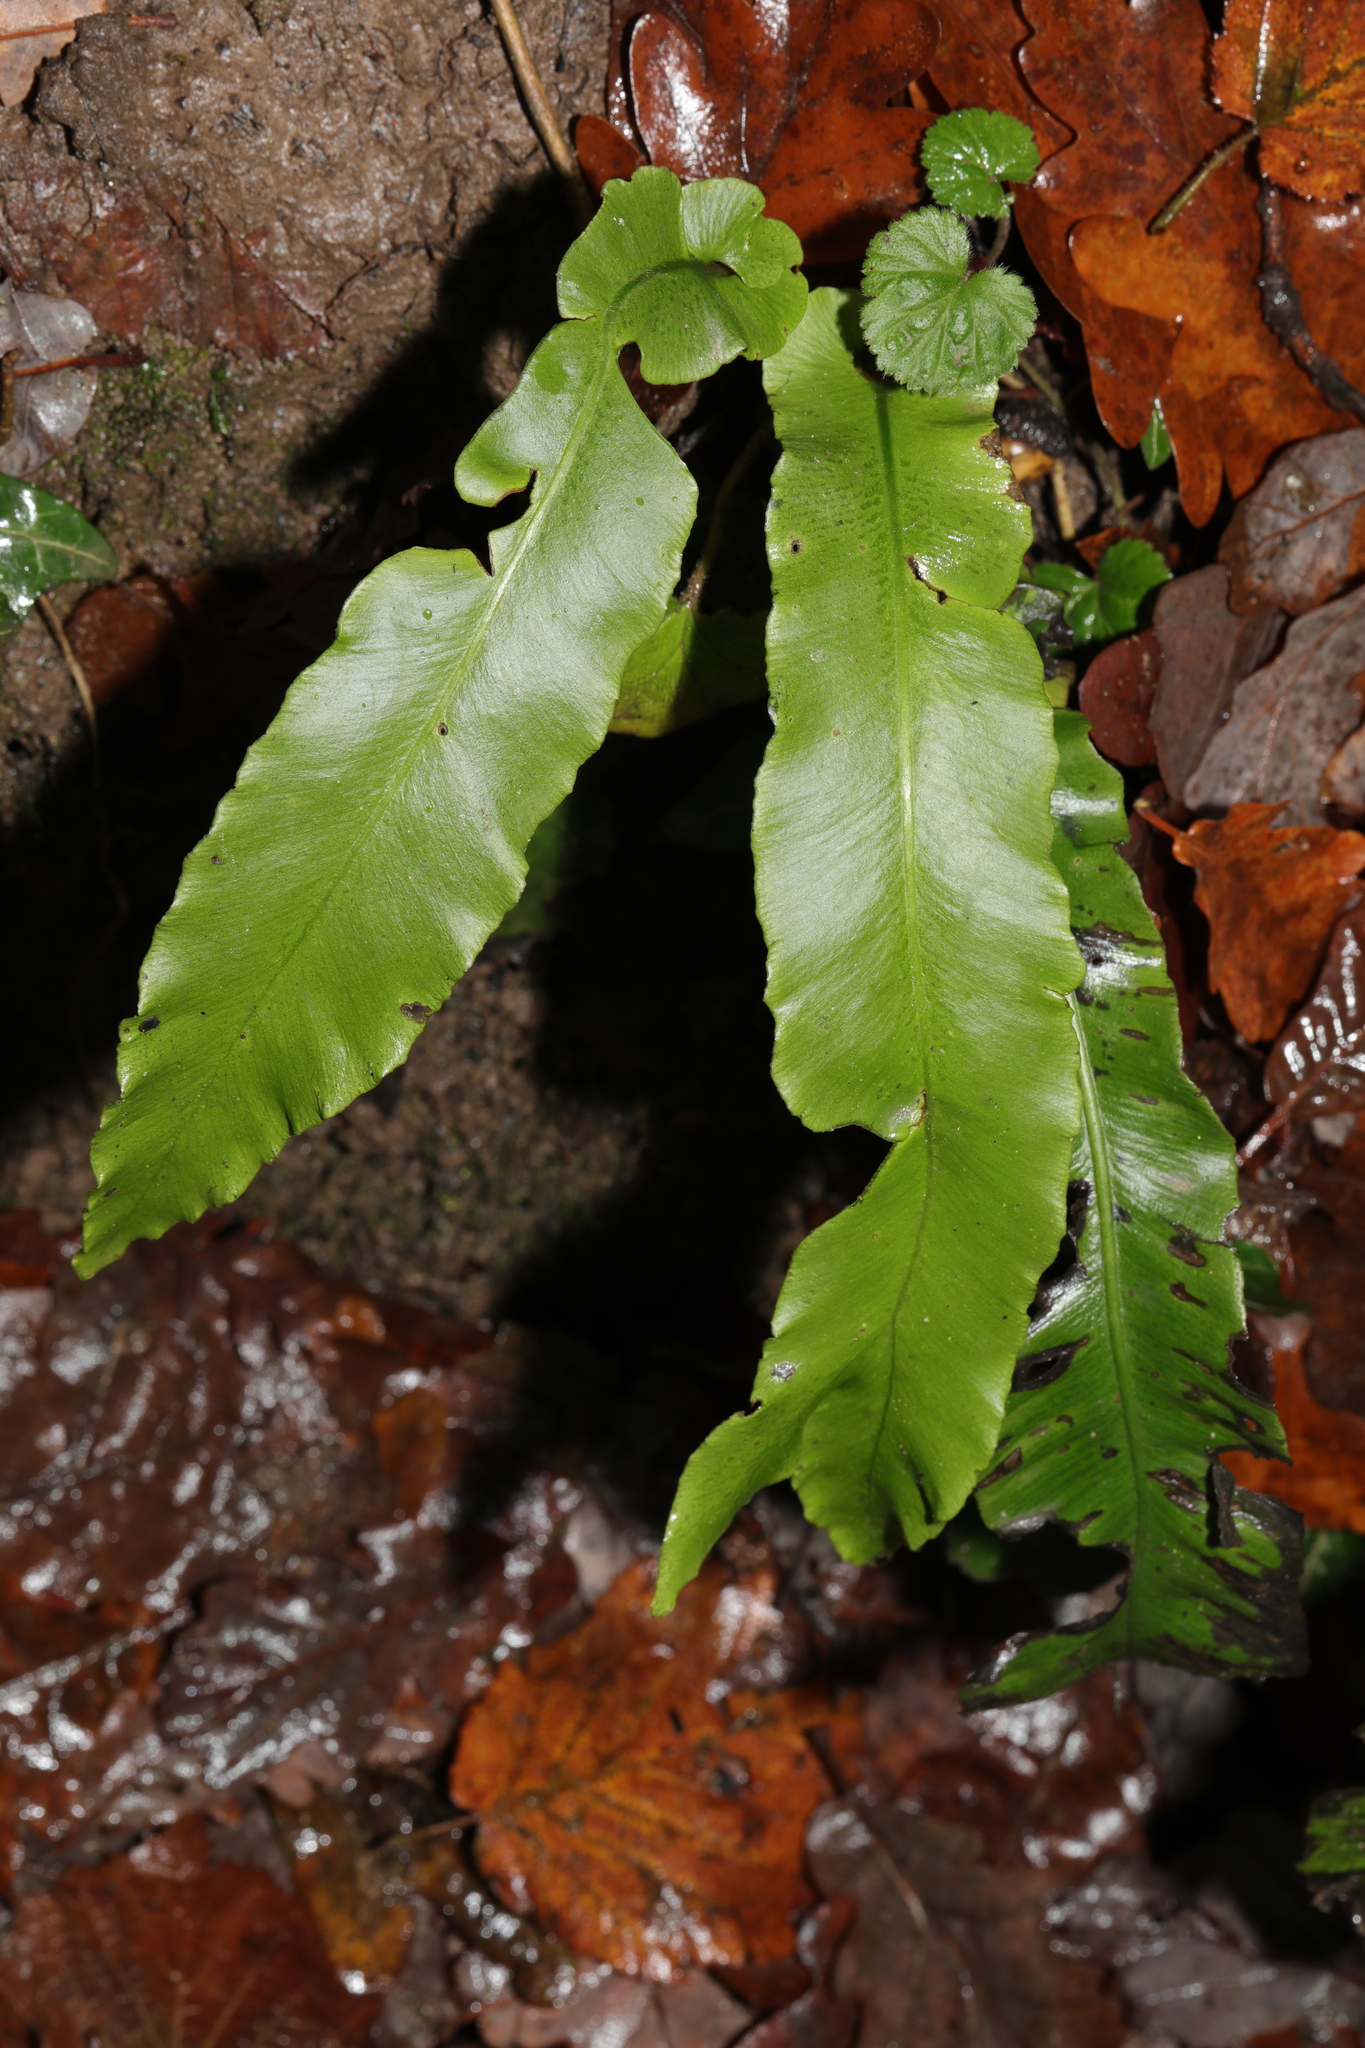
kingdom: Plantae
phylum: Tracheophyta
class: Polypodiopsida
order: Polypodiales
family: Aspleniaceae
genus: Asplenium
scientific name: Asplenium scolopendrium
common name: Hart's-tongue fern
